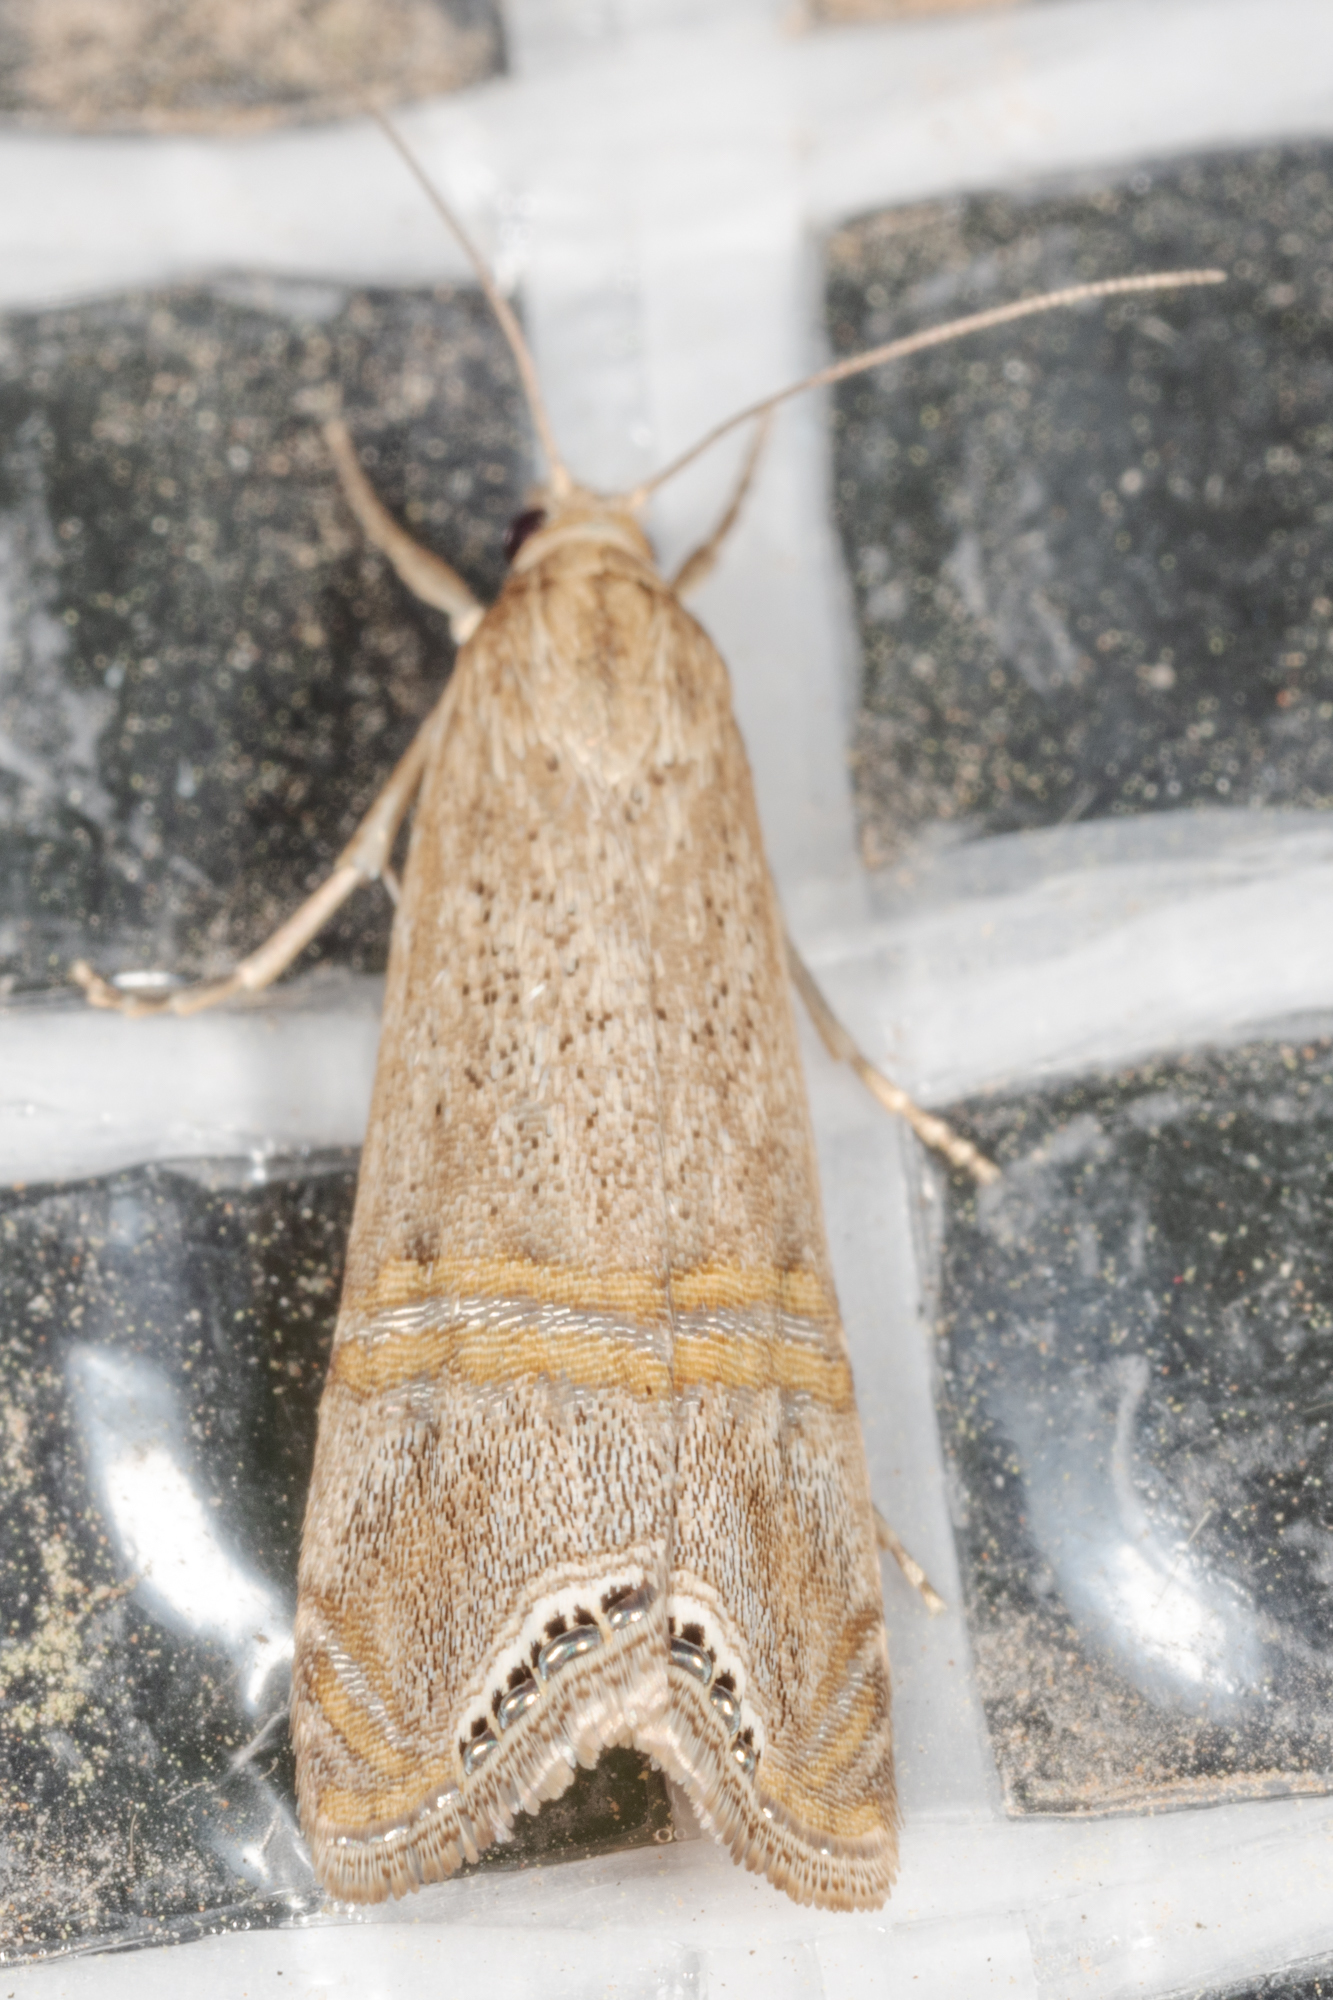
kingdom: Animalia
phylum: Arthropoda
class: Insecta
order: Lepidoptera
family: Crambidae
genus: Euchromius
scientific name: Euchromius ocellea
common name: Necklace veneer moth
